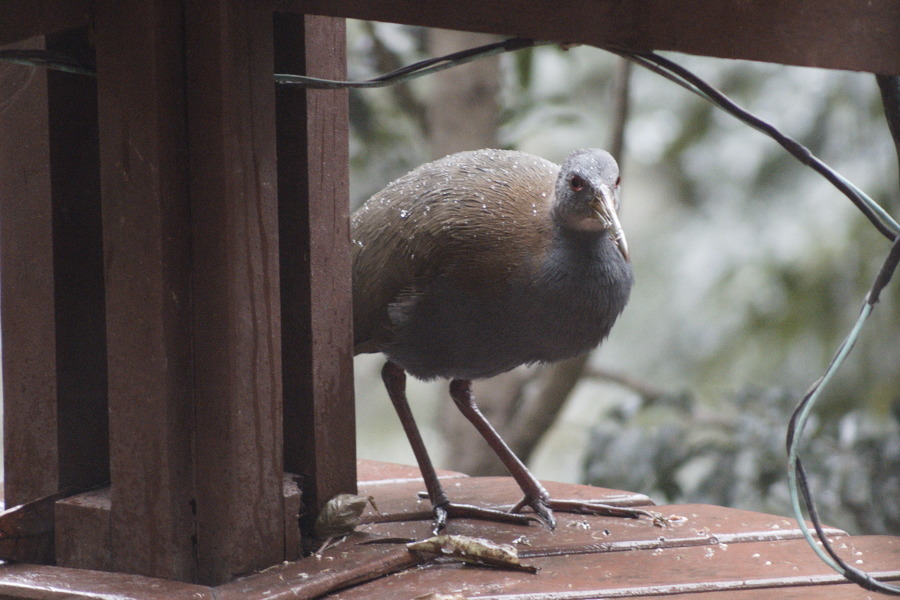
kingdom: Animalia
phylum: Chordata
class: Aves
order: Gruiformes
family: Rallidae
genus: Aramides
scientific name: Aramides saracura
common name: Slaty-breasted wood rail
